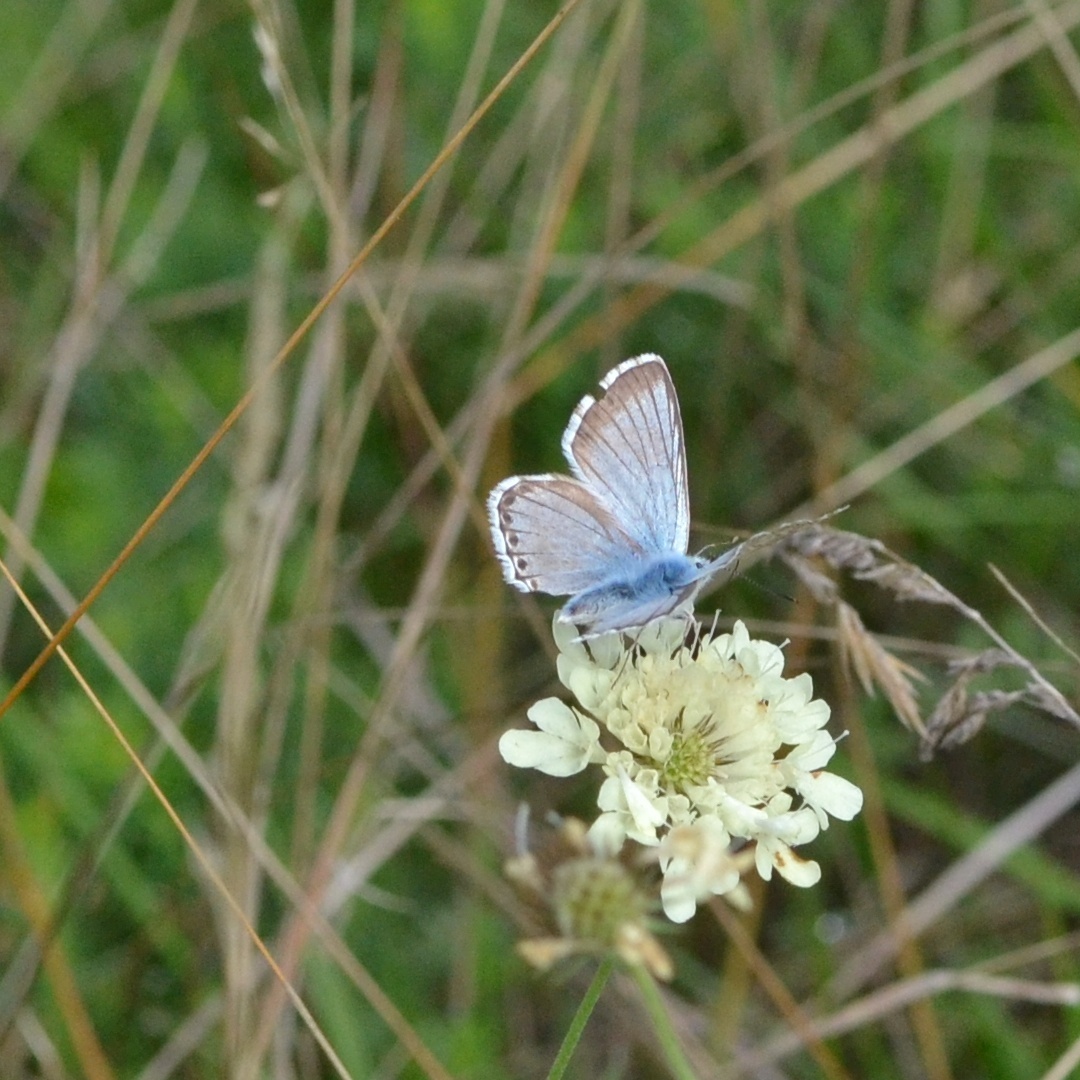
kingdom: Animalia
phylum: Arthropoda
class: Insecta
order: Lepidoptera
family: Lycaenidae
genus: Lysandra
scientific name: Lysandra coridon
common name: Chalkhill blue
